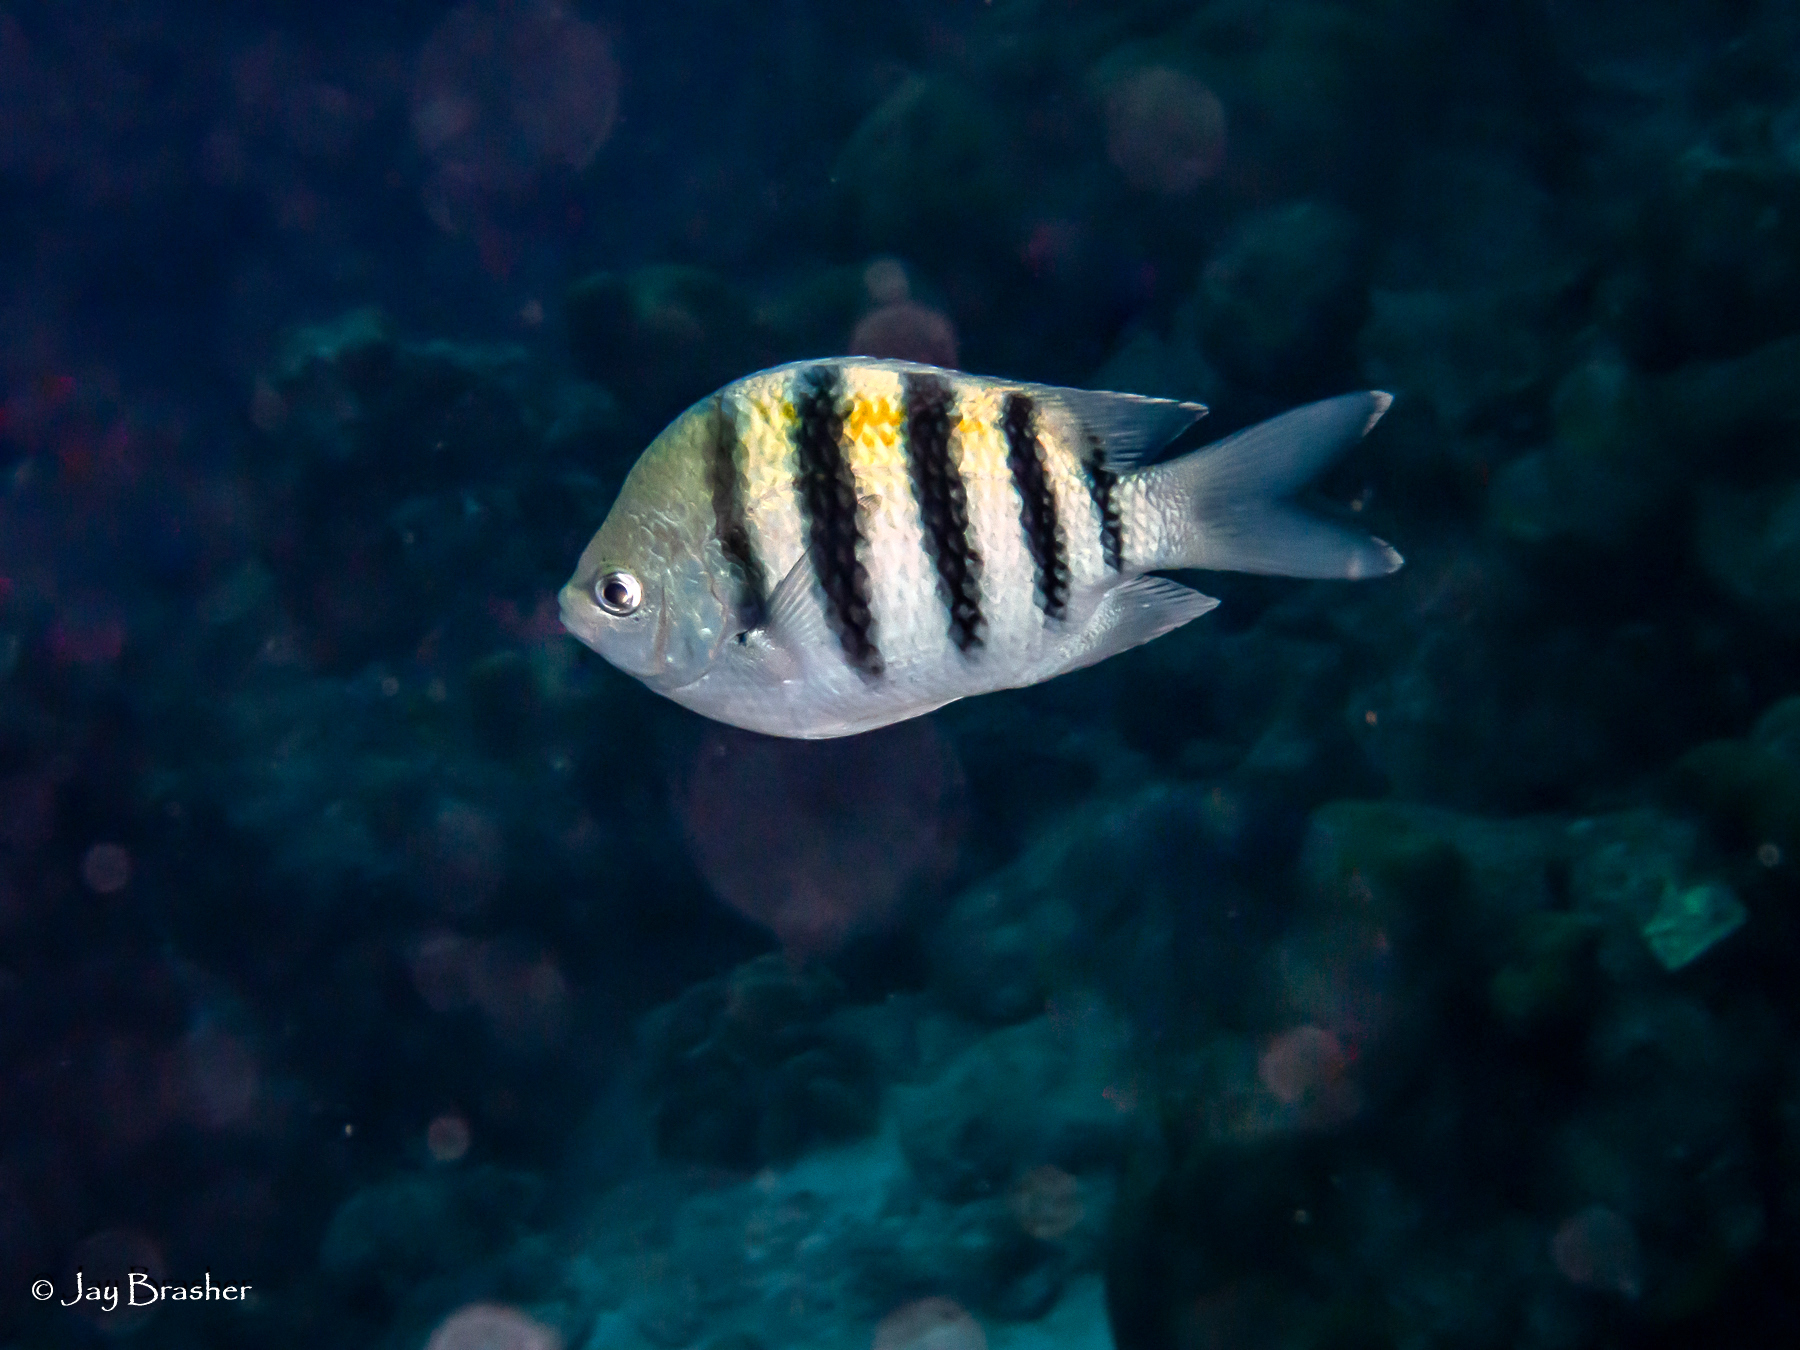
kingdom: Animalia
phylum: Chordata
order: Perciformes
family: Pomacentridae
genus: Abudefduf
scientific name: Abudefduf saxatilis
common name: Sergeant major
